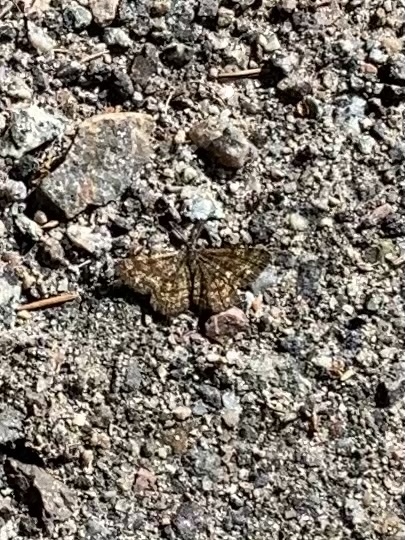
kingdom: Animalia
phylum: Arthropoda
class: Insecta
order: Lepidoptera
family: Geometridae
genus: Ematurga
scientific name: Ematurga atomaria
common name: Common heath
